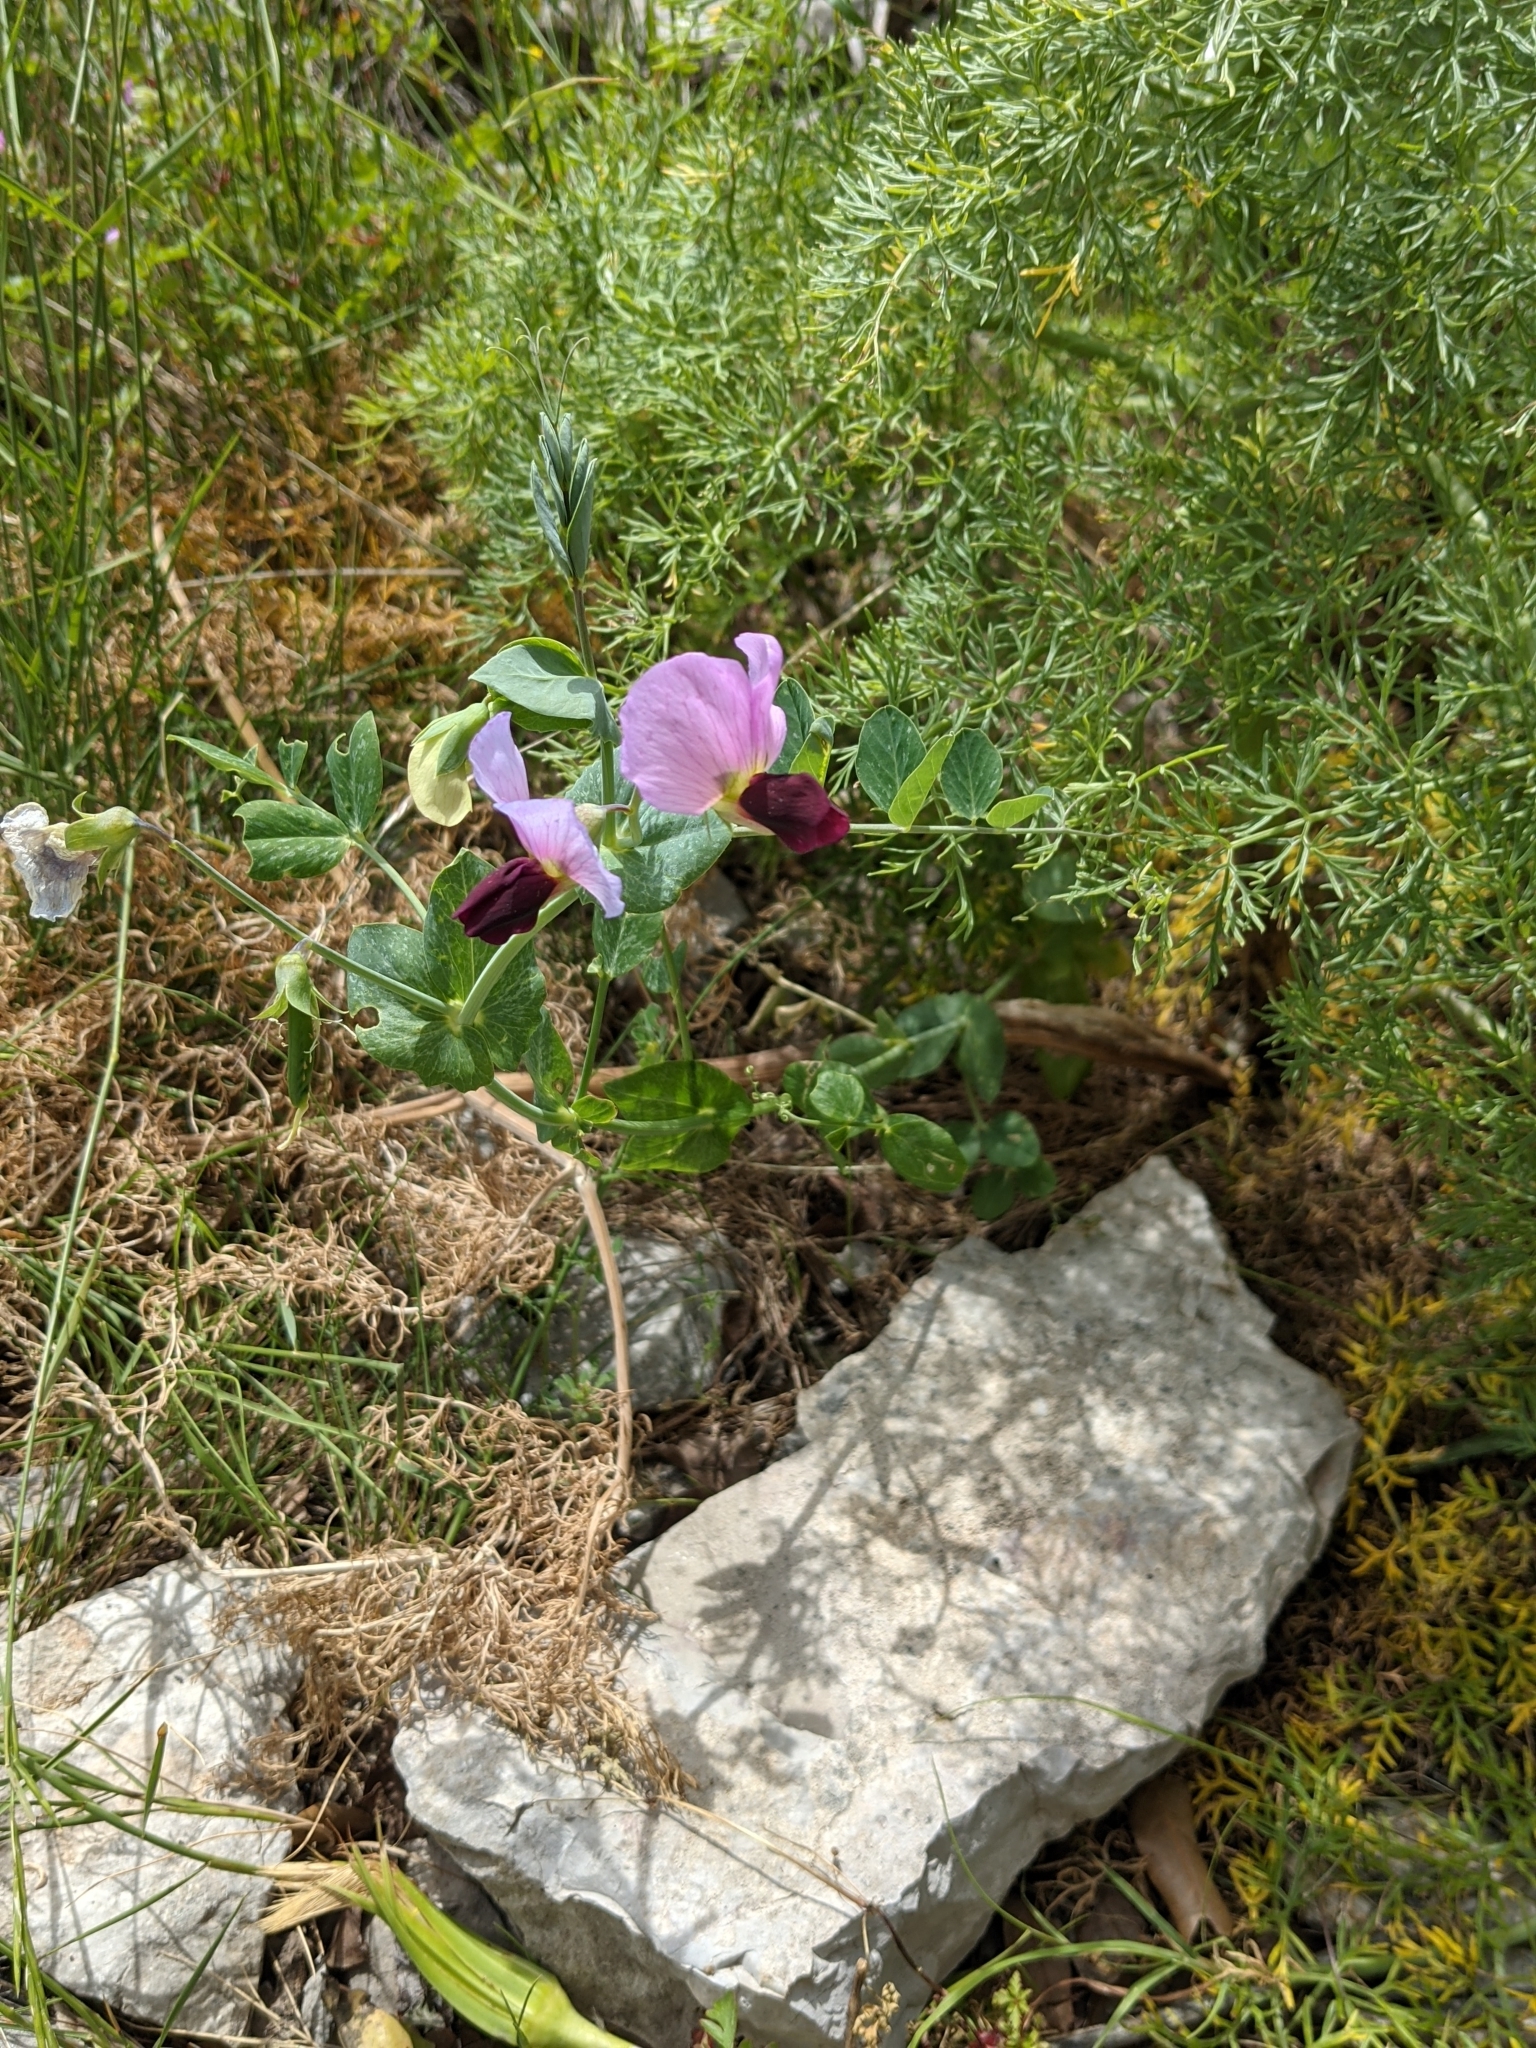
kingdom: Plantae
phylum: Tracheophyta
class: Magnoliopsida
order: Fabales
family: Fabaceae
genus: Lathyrus
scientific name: Lathyrus oleraceus
